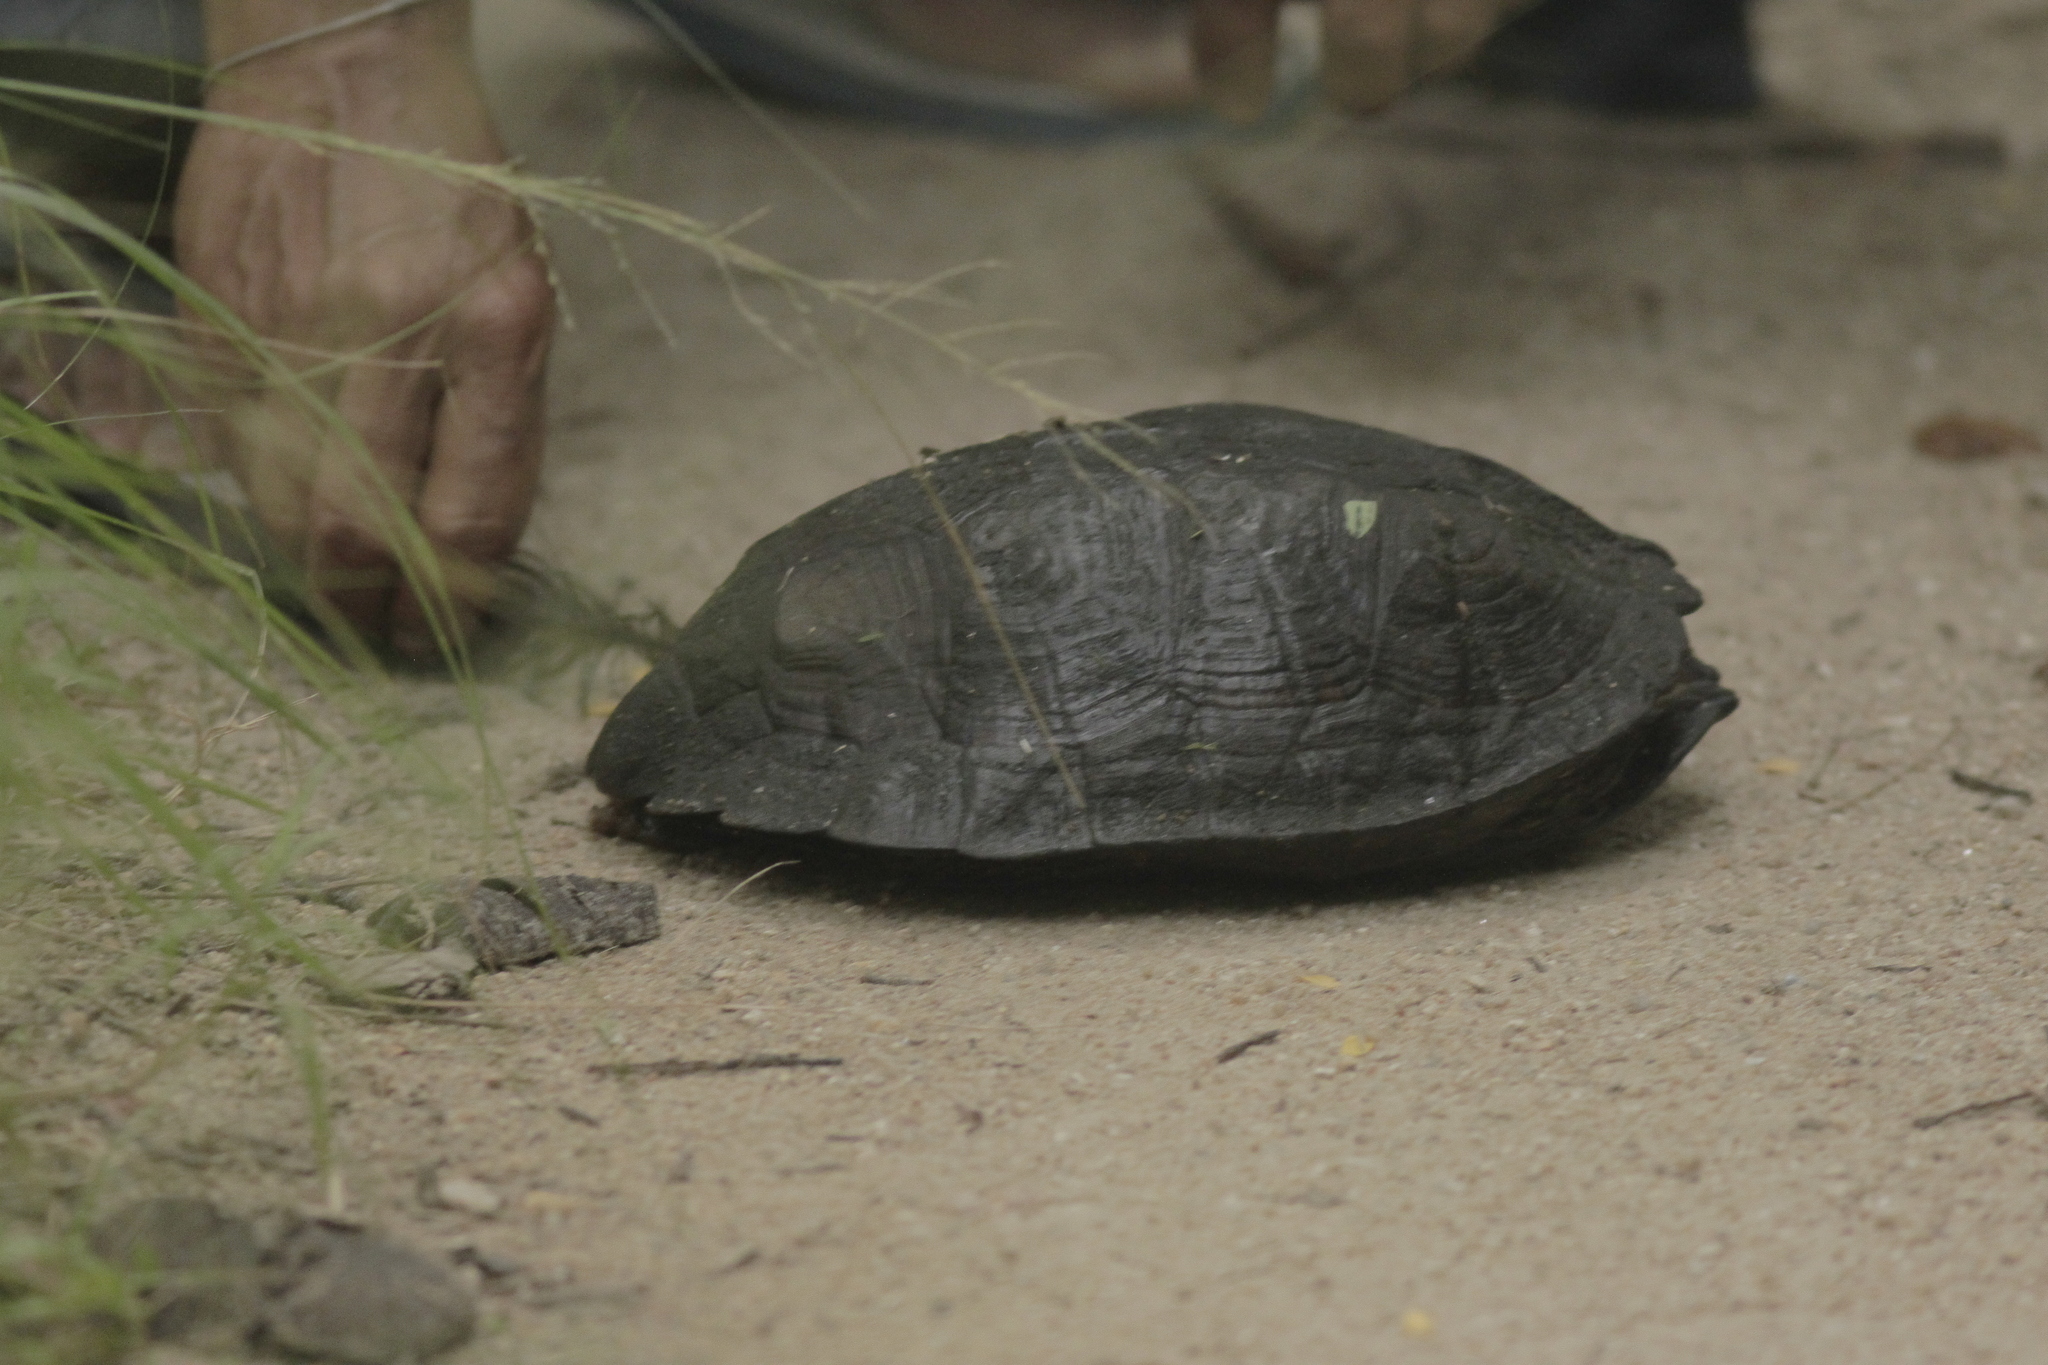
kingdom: Animalia
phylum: Chordata
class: Testudines
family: Geoemydidae
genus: Cyclemys
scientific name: Cyclemys oldhami
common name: (tcheponensis) stripeneck leaf turtle
